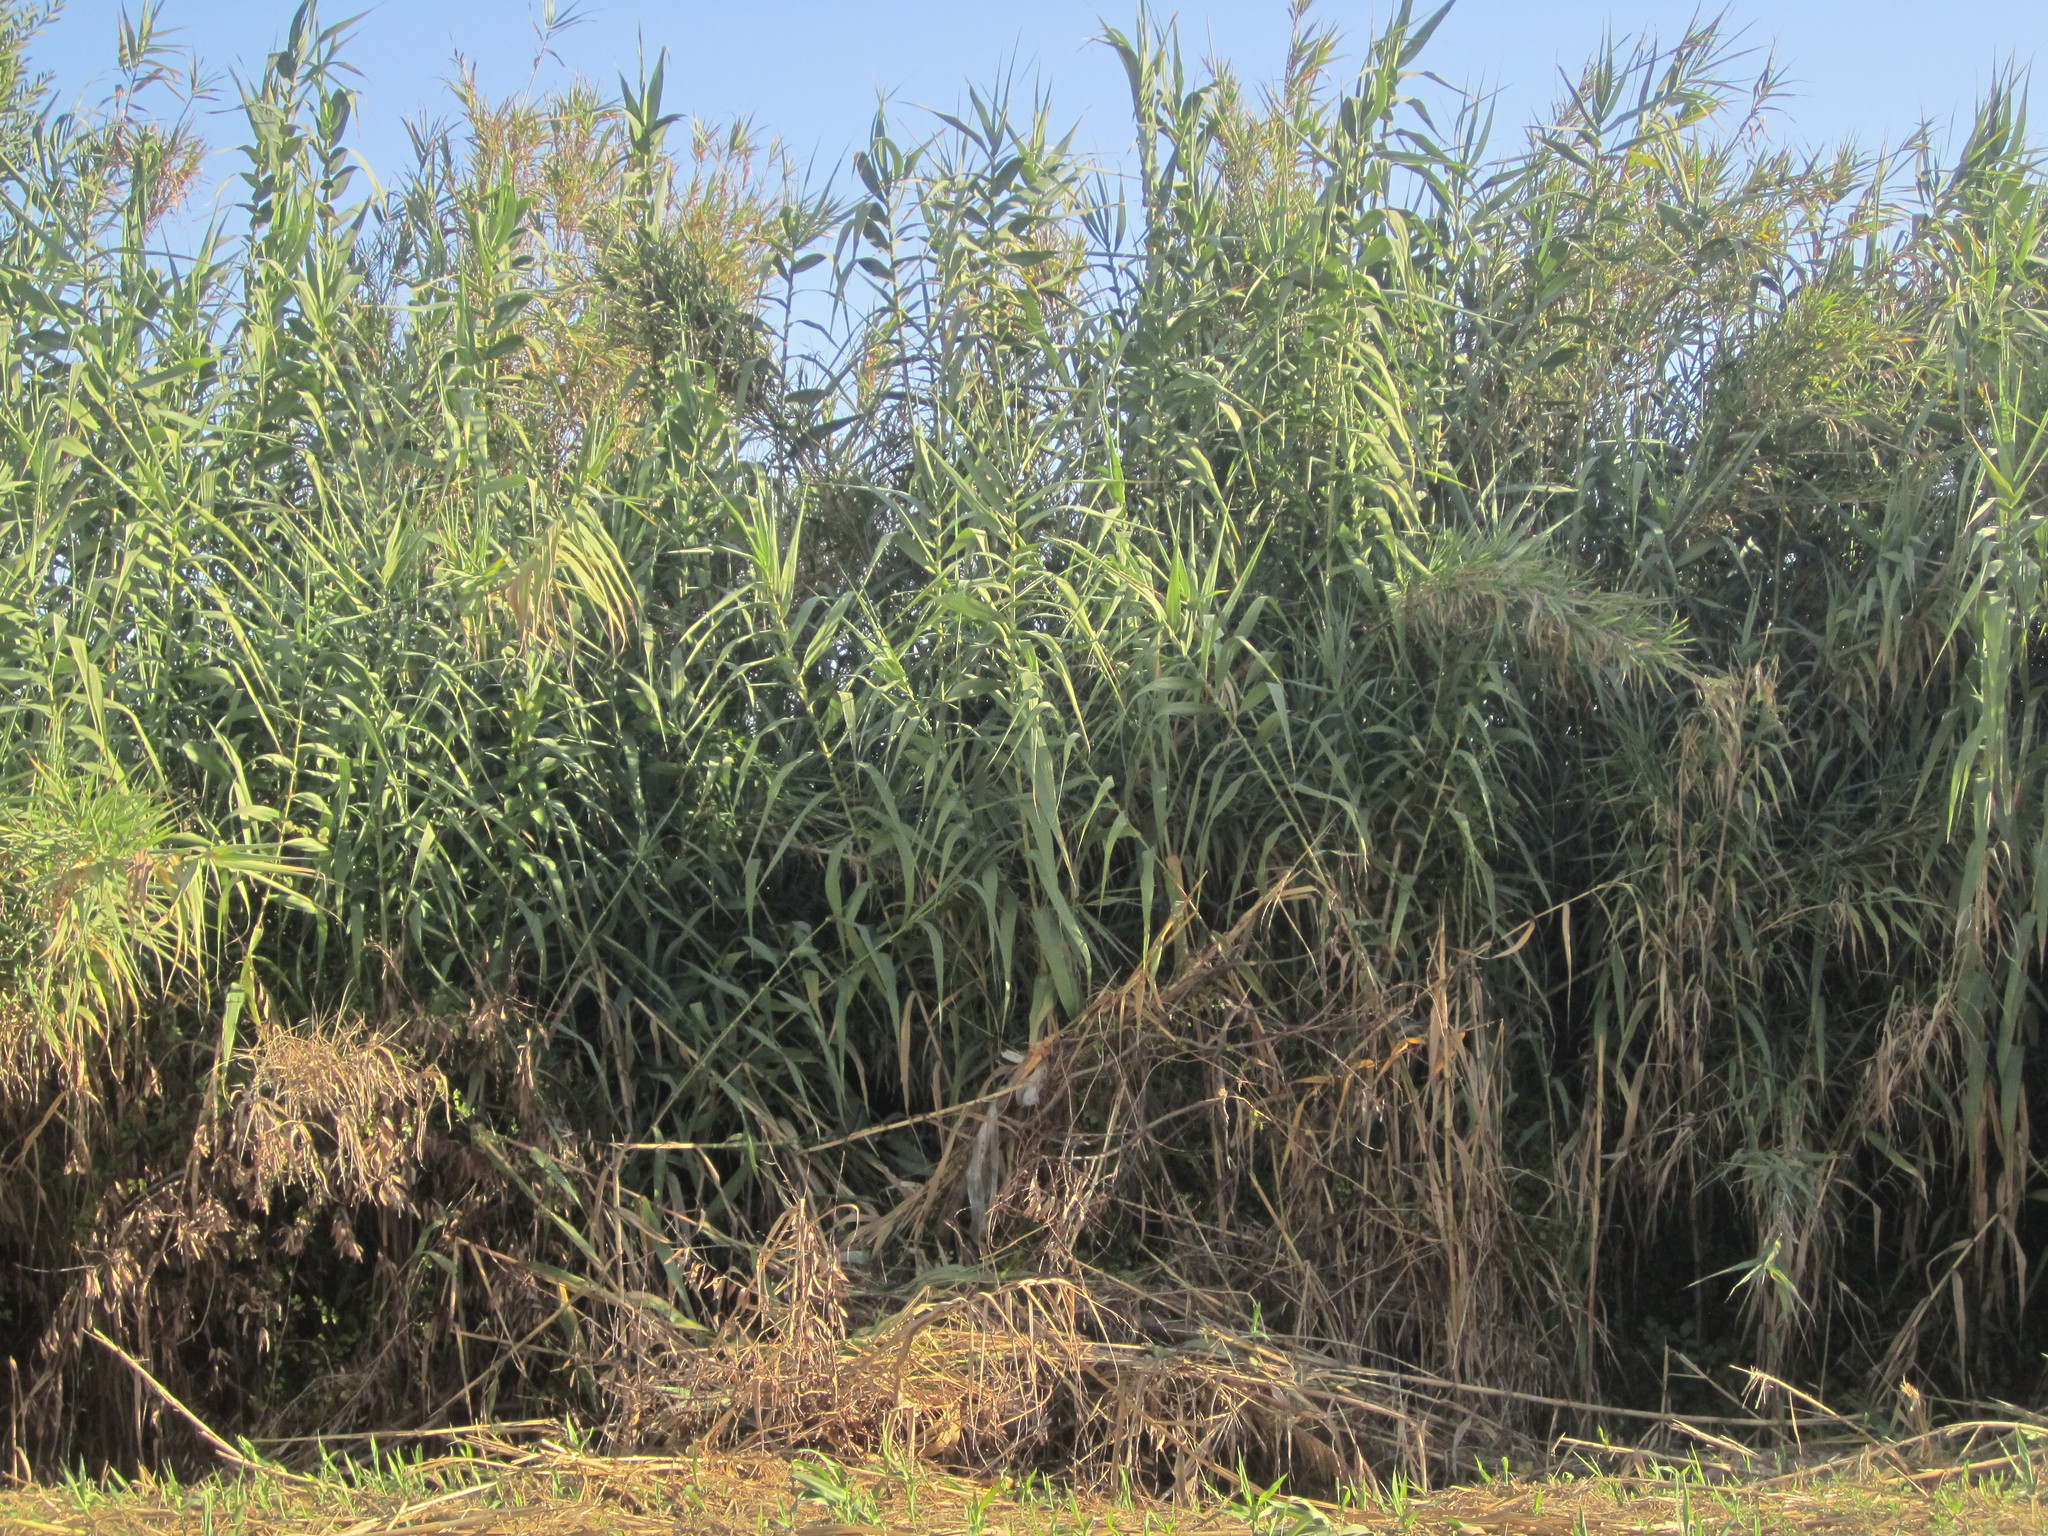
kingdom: Plantae
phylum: Tracheophyta
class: Liliopsida
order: Poales
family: Poaceae
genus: Arundo
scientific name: Arundo donax
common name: Giant reed
